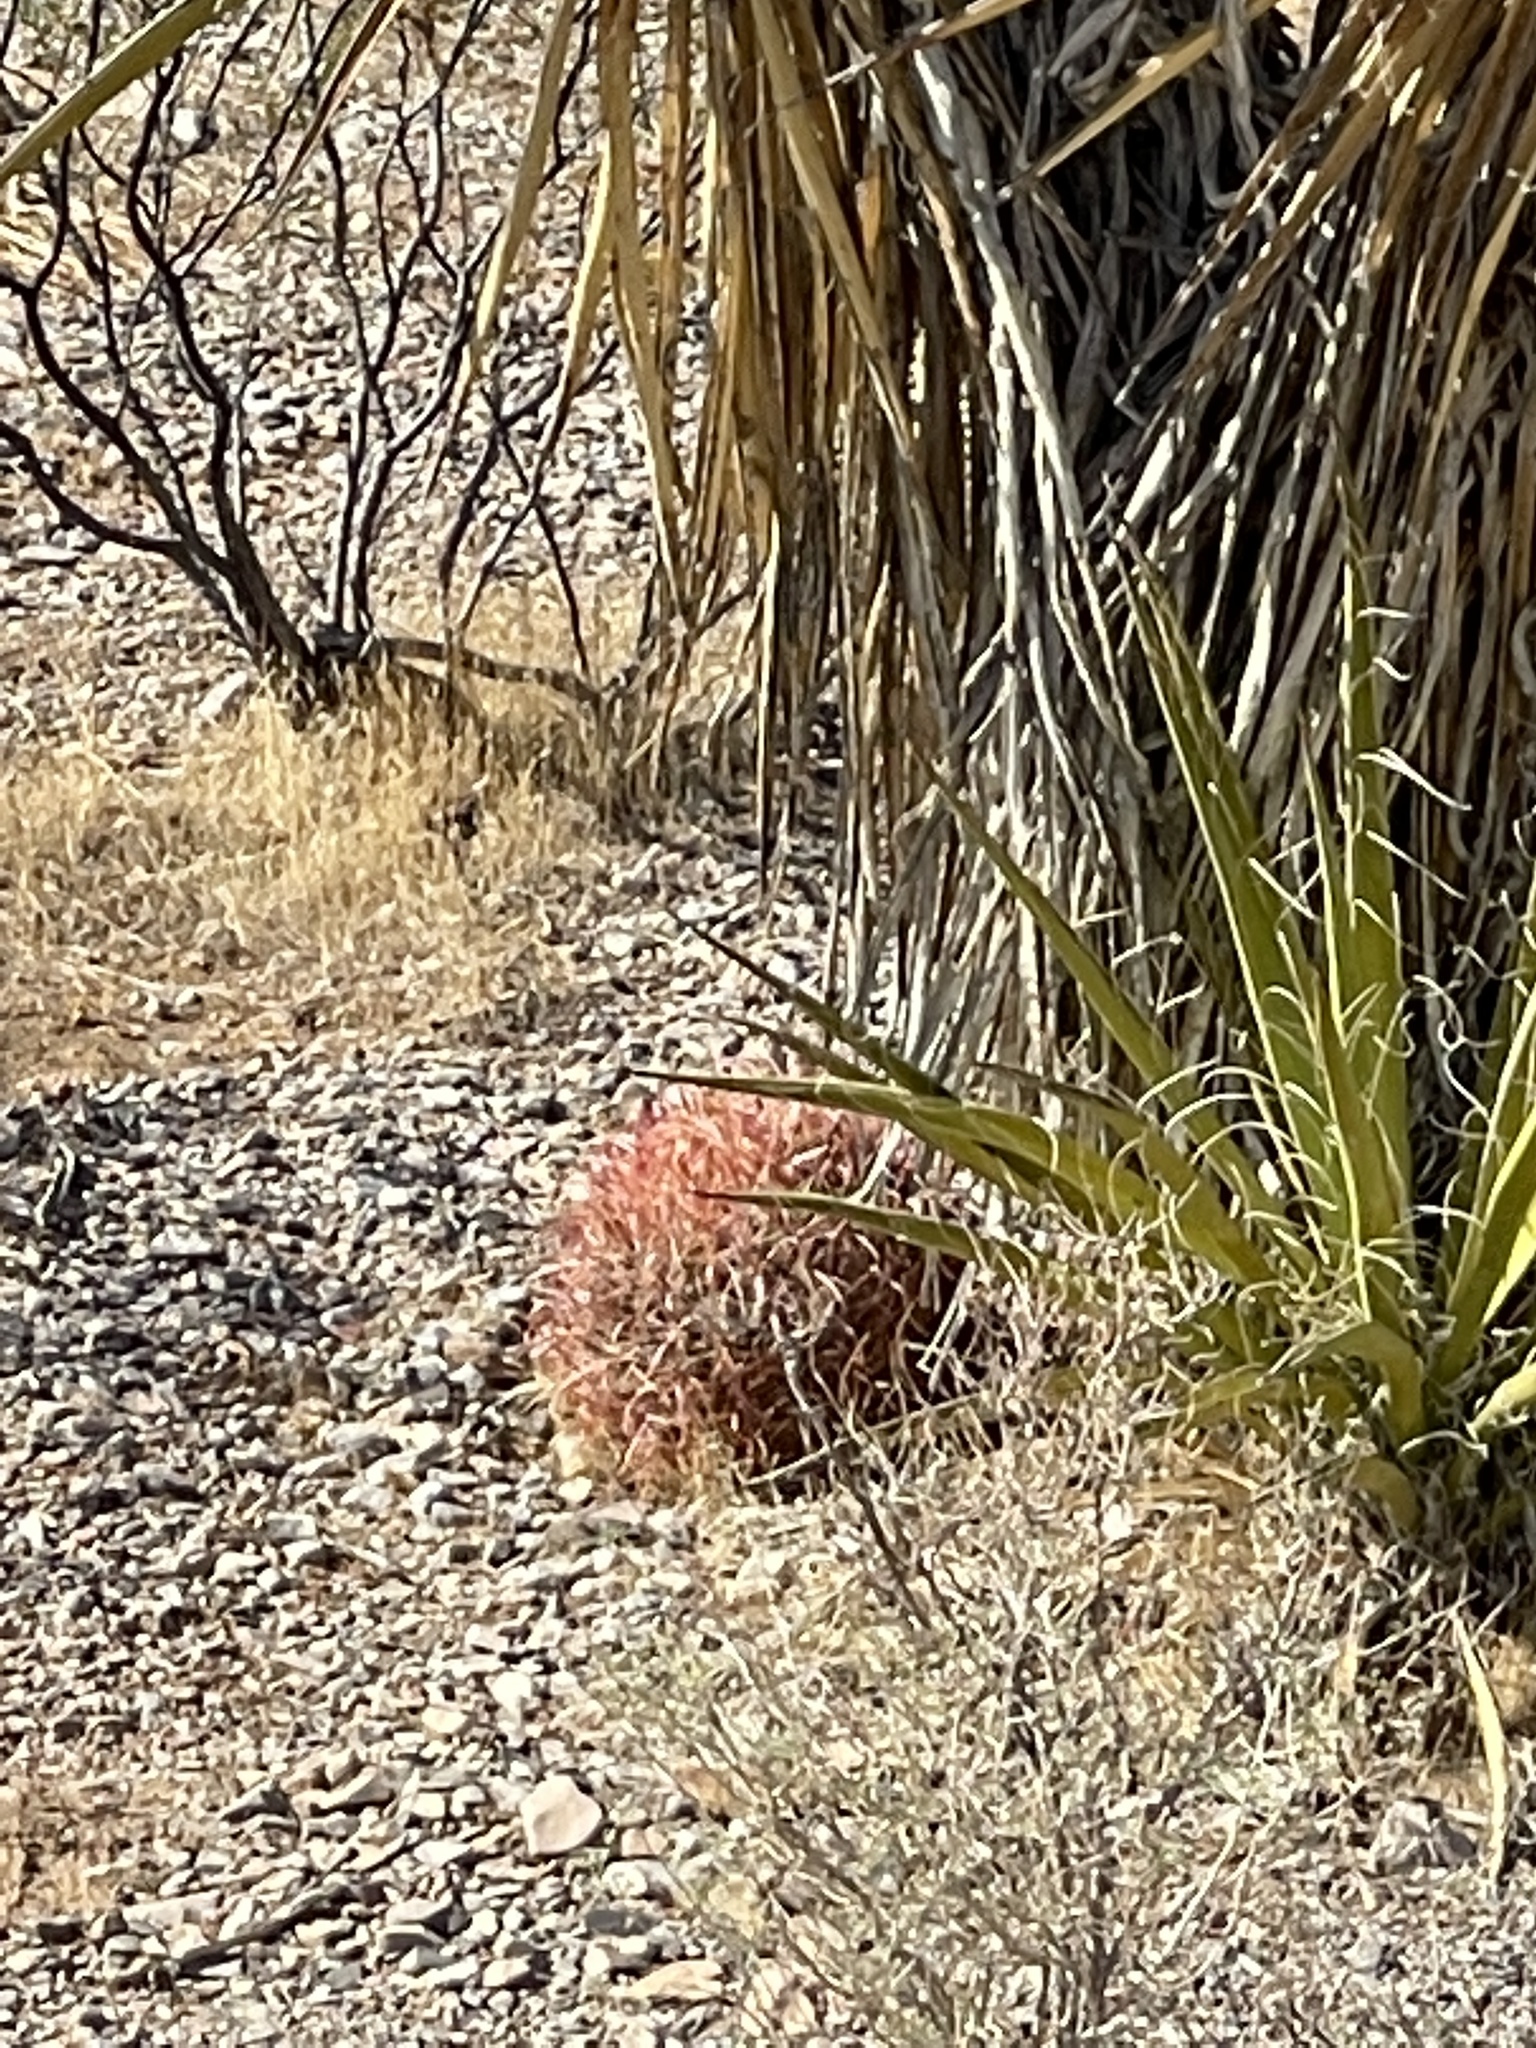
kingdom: Plantae
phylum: Tracheophyta
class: Magnoliopsida
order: Caryophyllales
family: Cactaceae
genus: Ferocactus
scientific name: Ferocactus cylindraceus
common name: California barrel cactus
